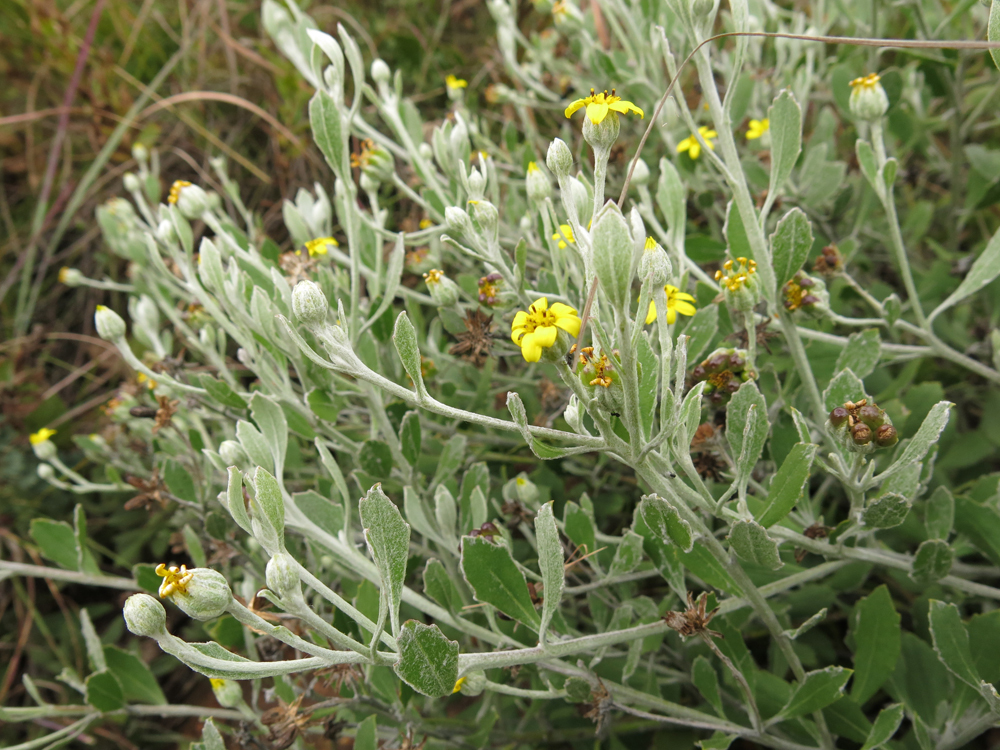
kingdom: Plantae
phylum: Tracheophyta
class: Magnoliopsida
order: Asterales
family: Asteraceae
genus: Osteospermum
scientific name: Osteospermum moniliferum
